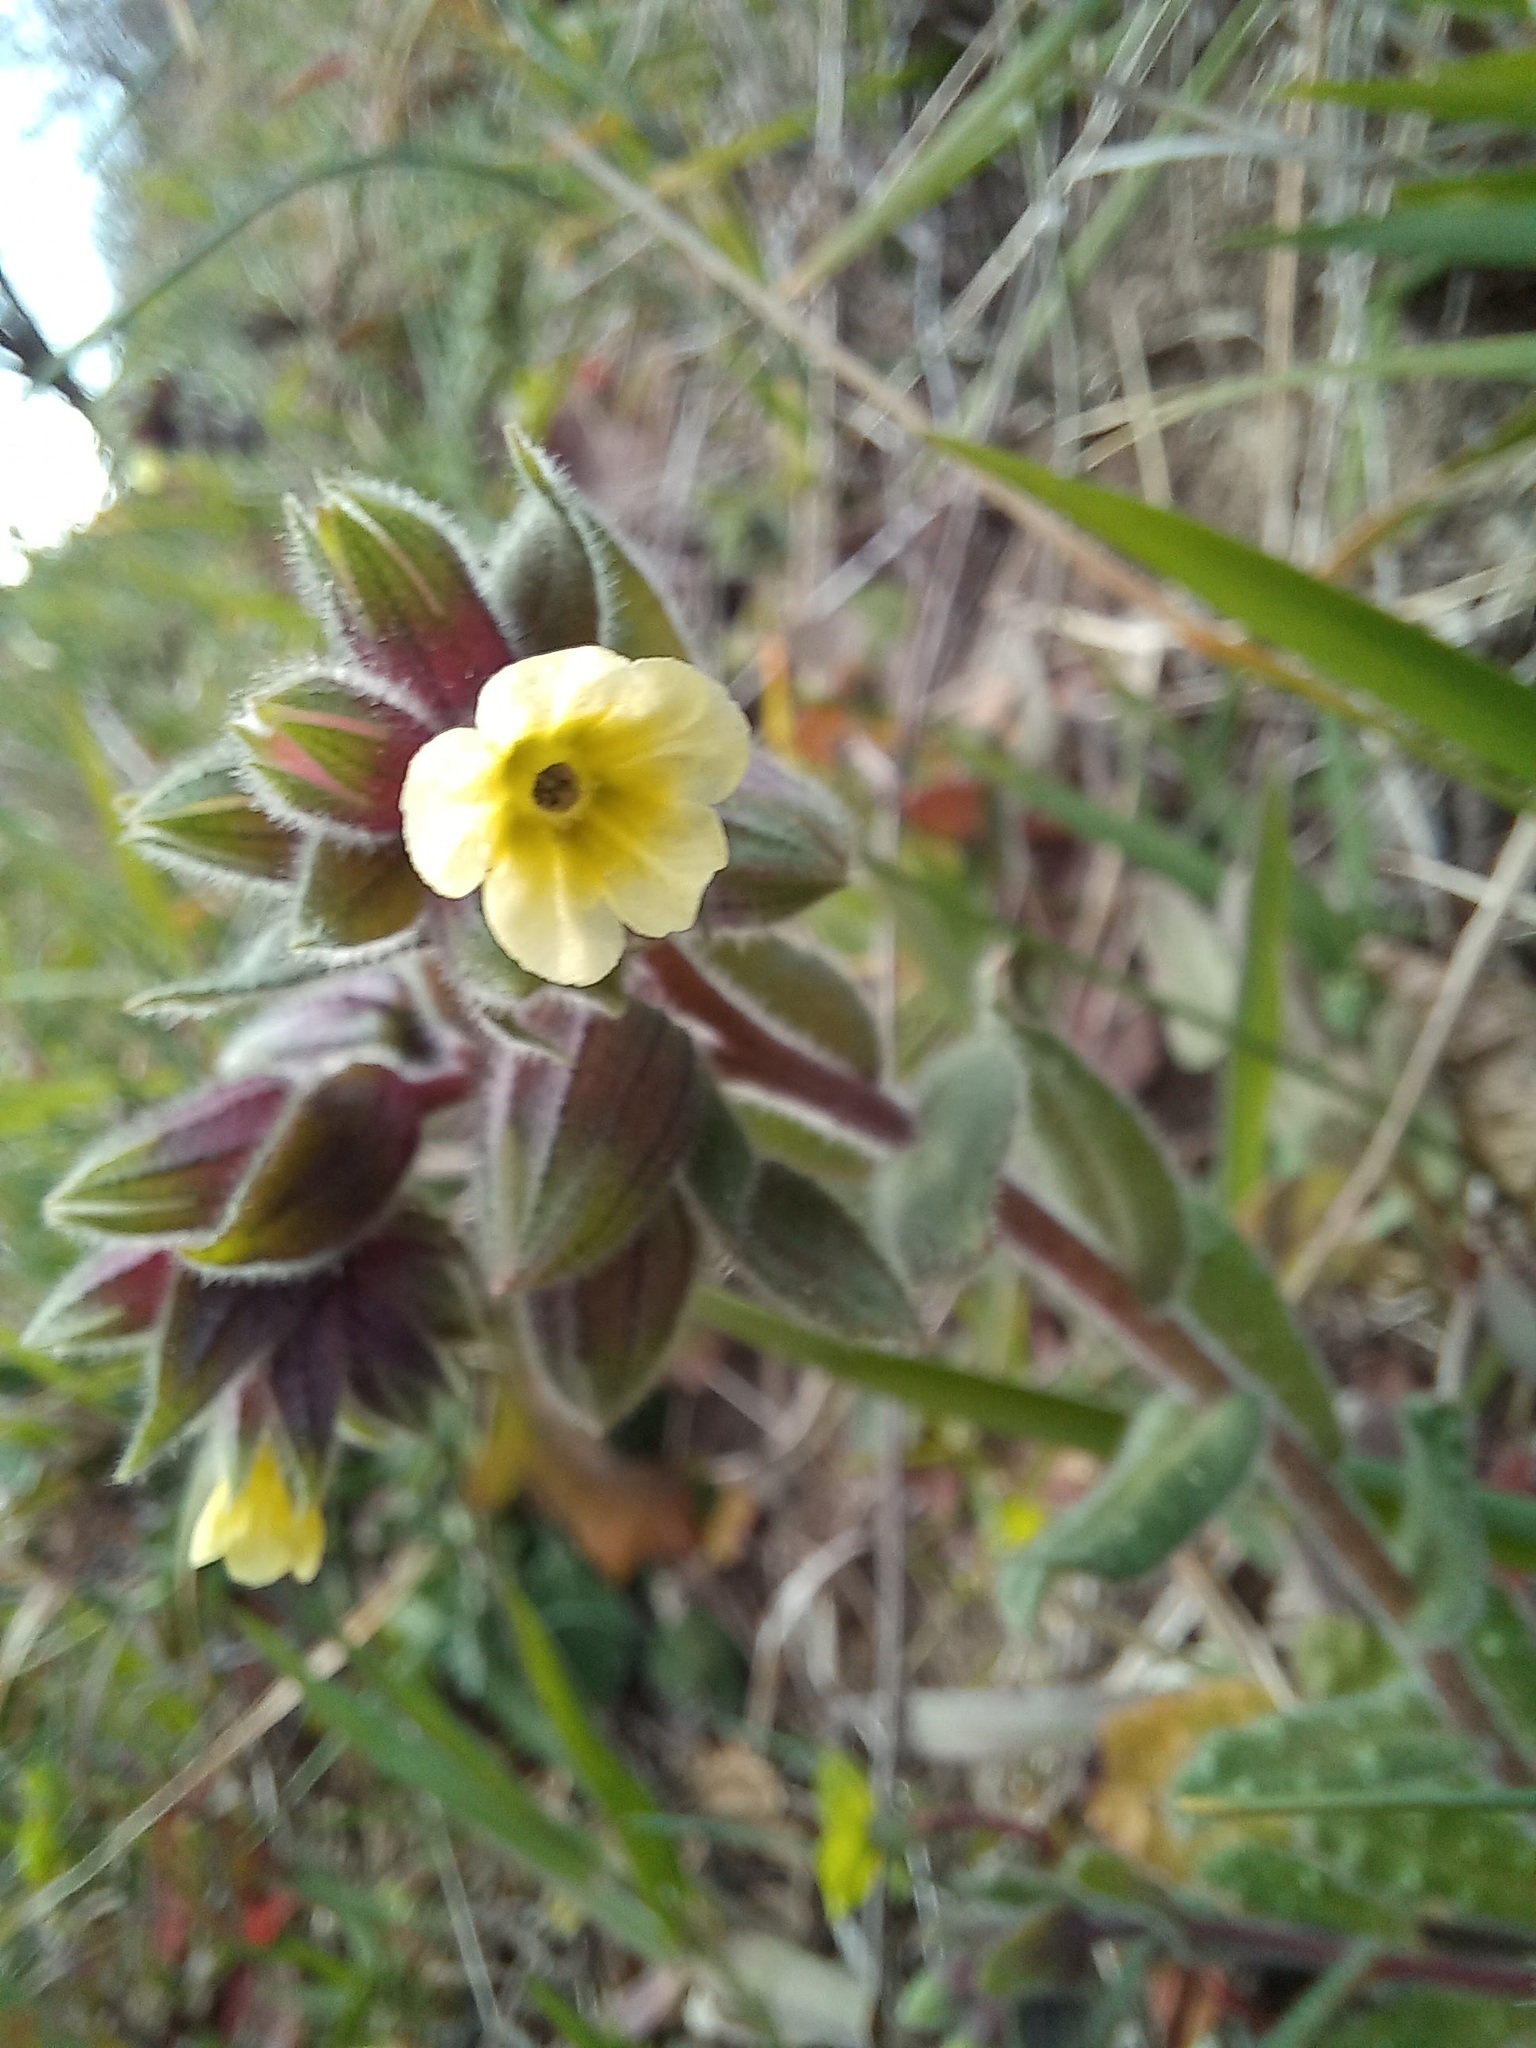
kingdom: Plantae
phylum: Tracheophyta
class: Magnoliopsida
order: Boraginales
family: Boraginaceae
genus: Nonea
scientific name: Nonea lutea
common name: Yellow nonea
